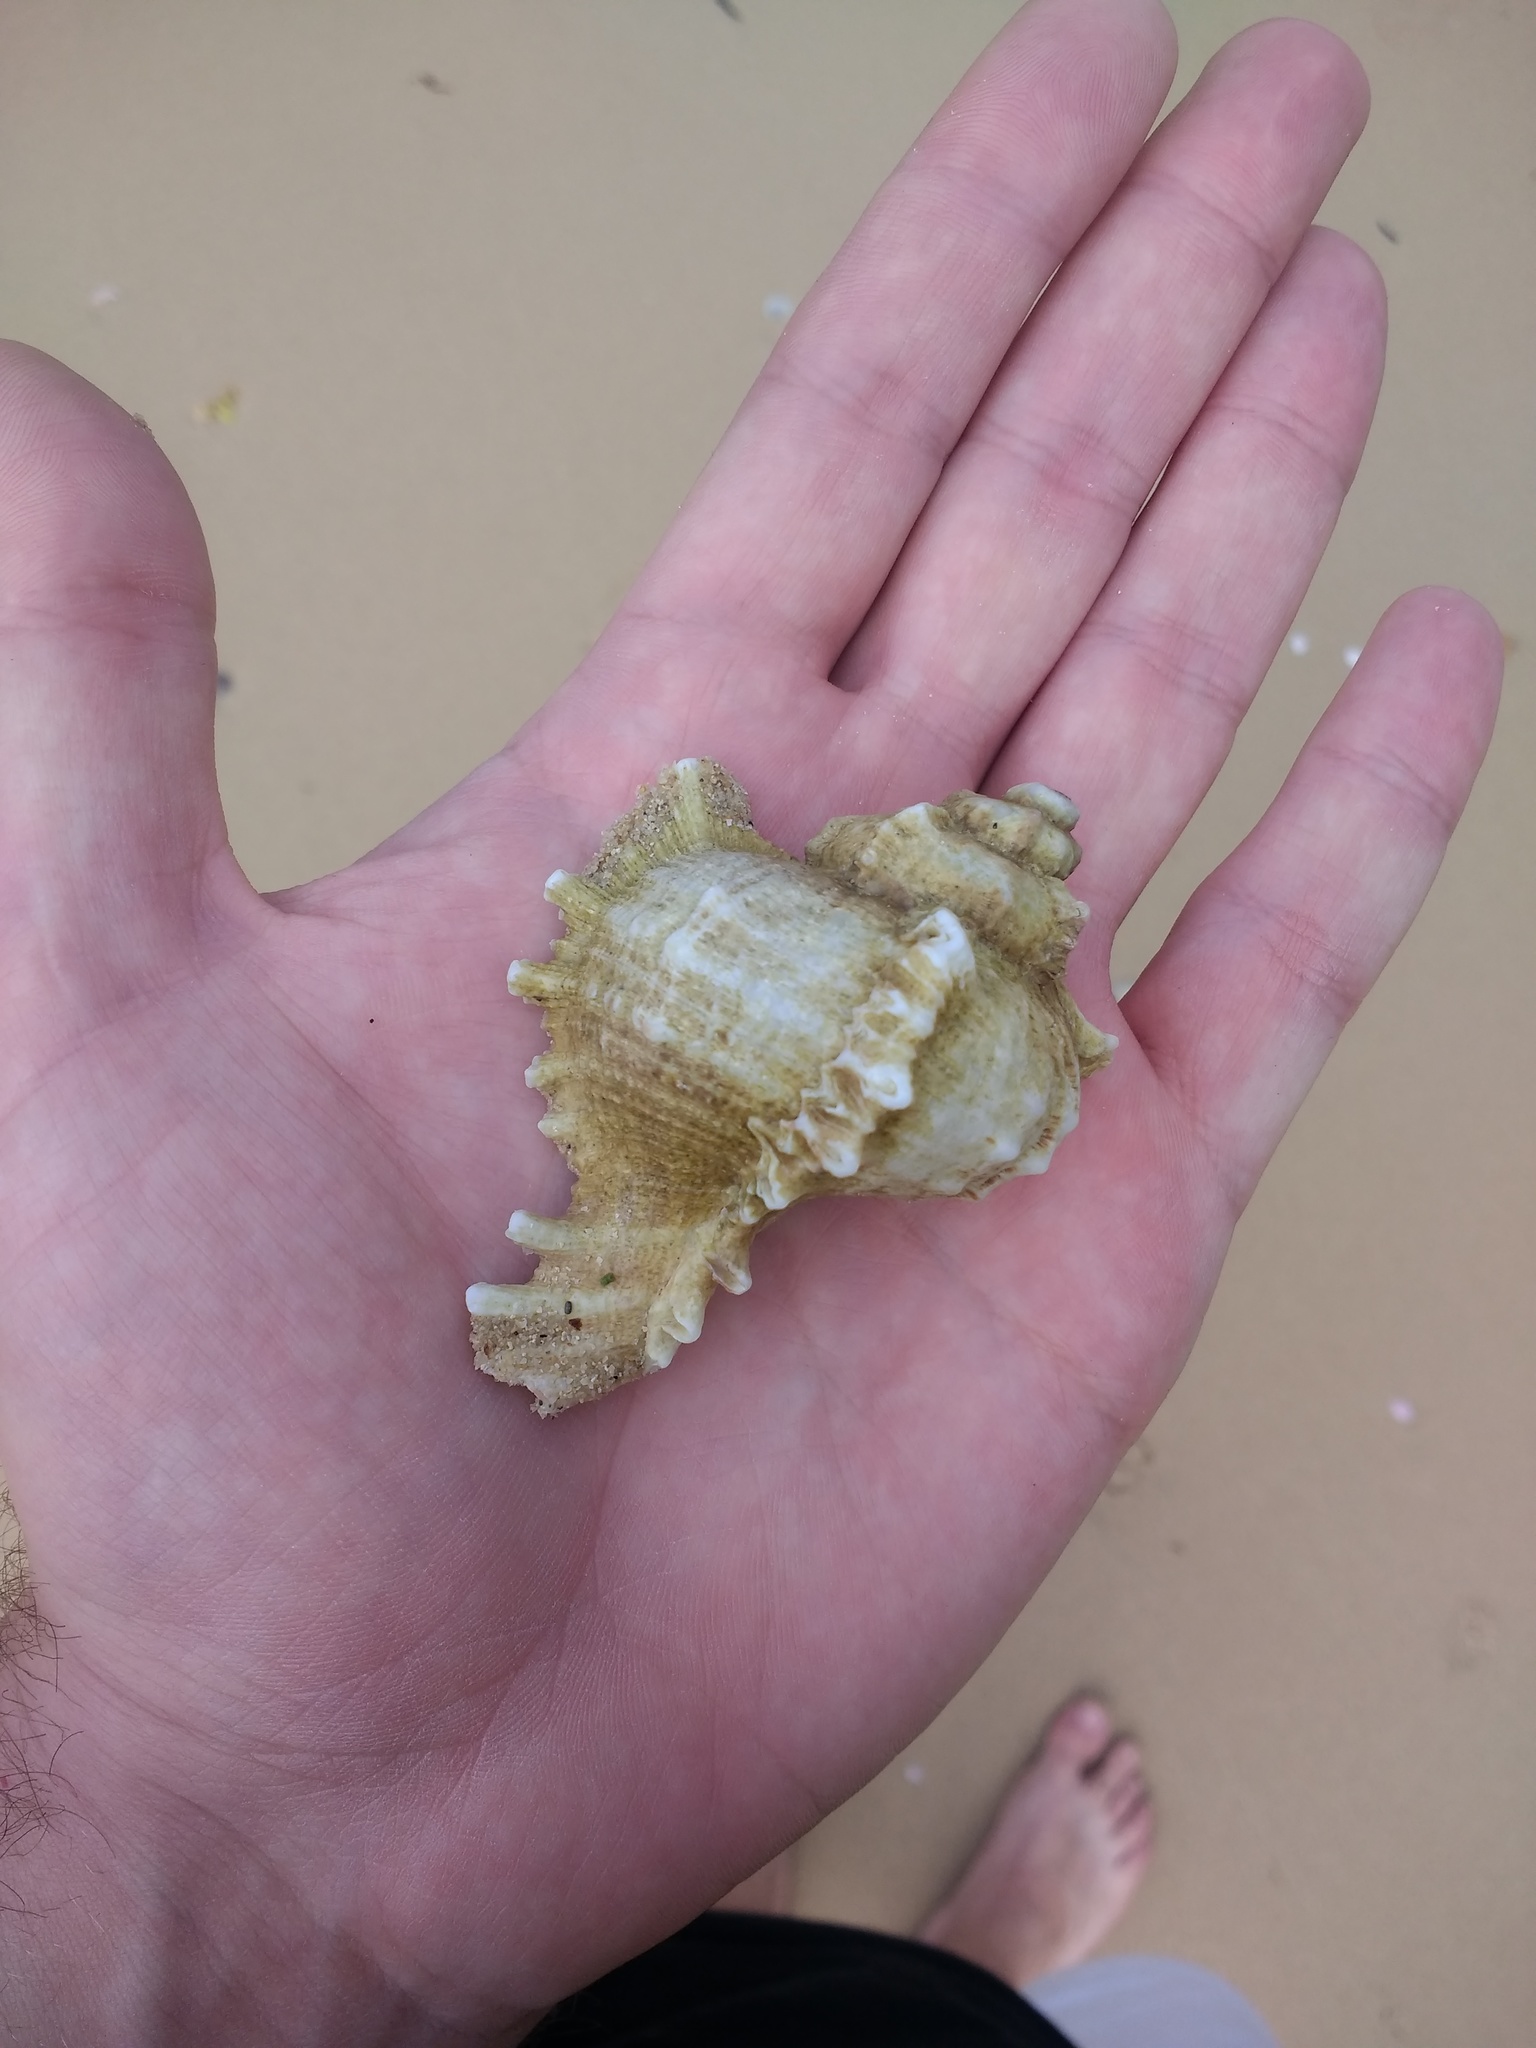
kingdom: Animalia
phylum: Mollusca
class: Gastropoda
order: Neogastropoda
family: Muricidae
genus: Chicoreus
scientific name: Chicoreus ramosus
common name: Branched murex
